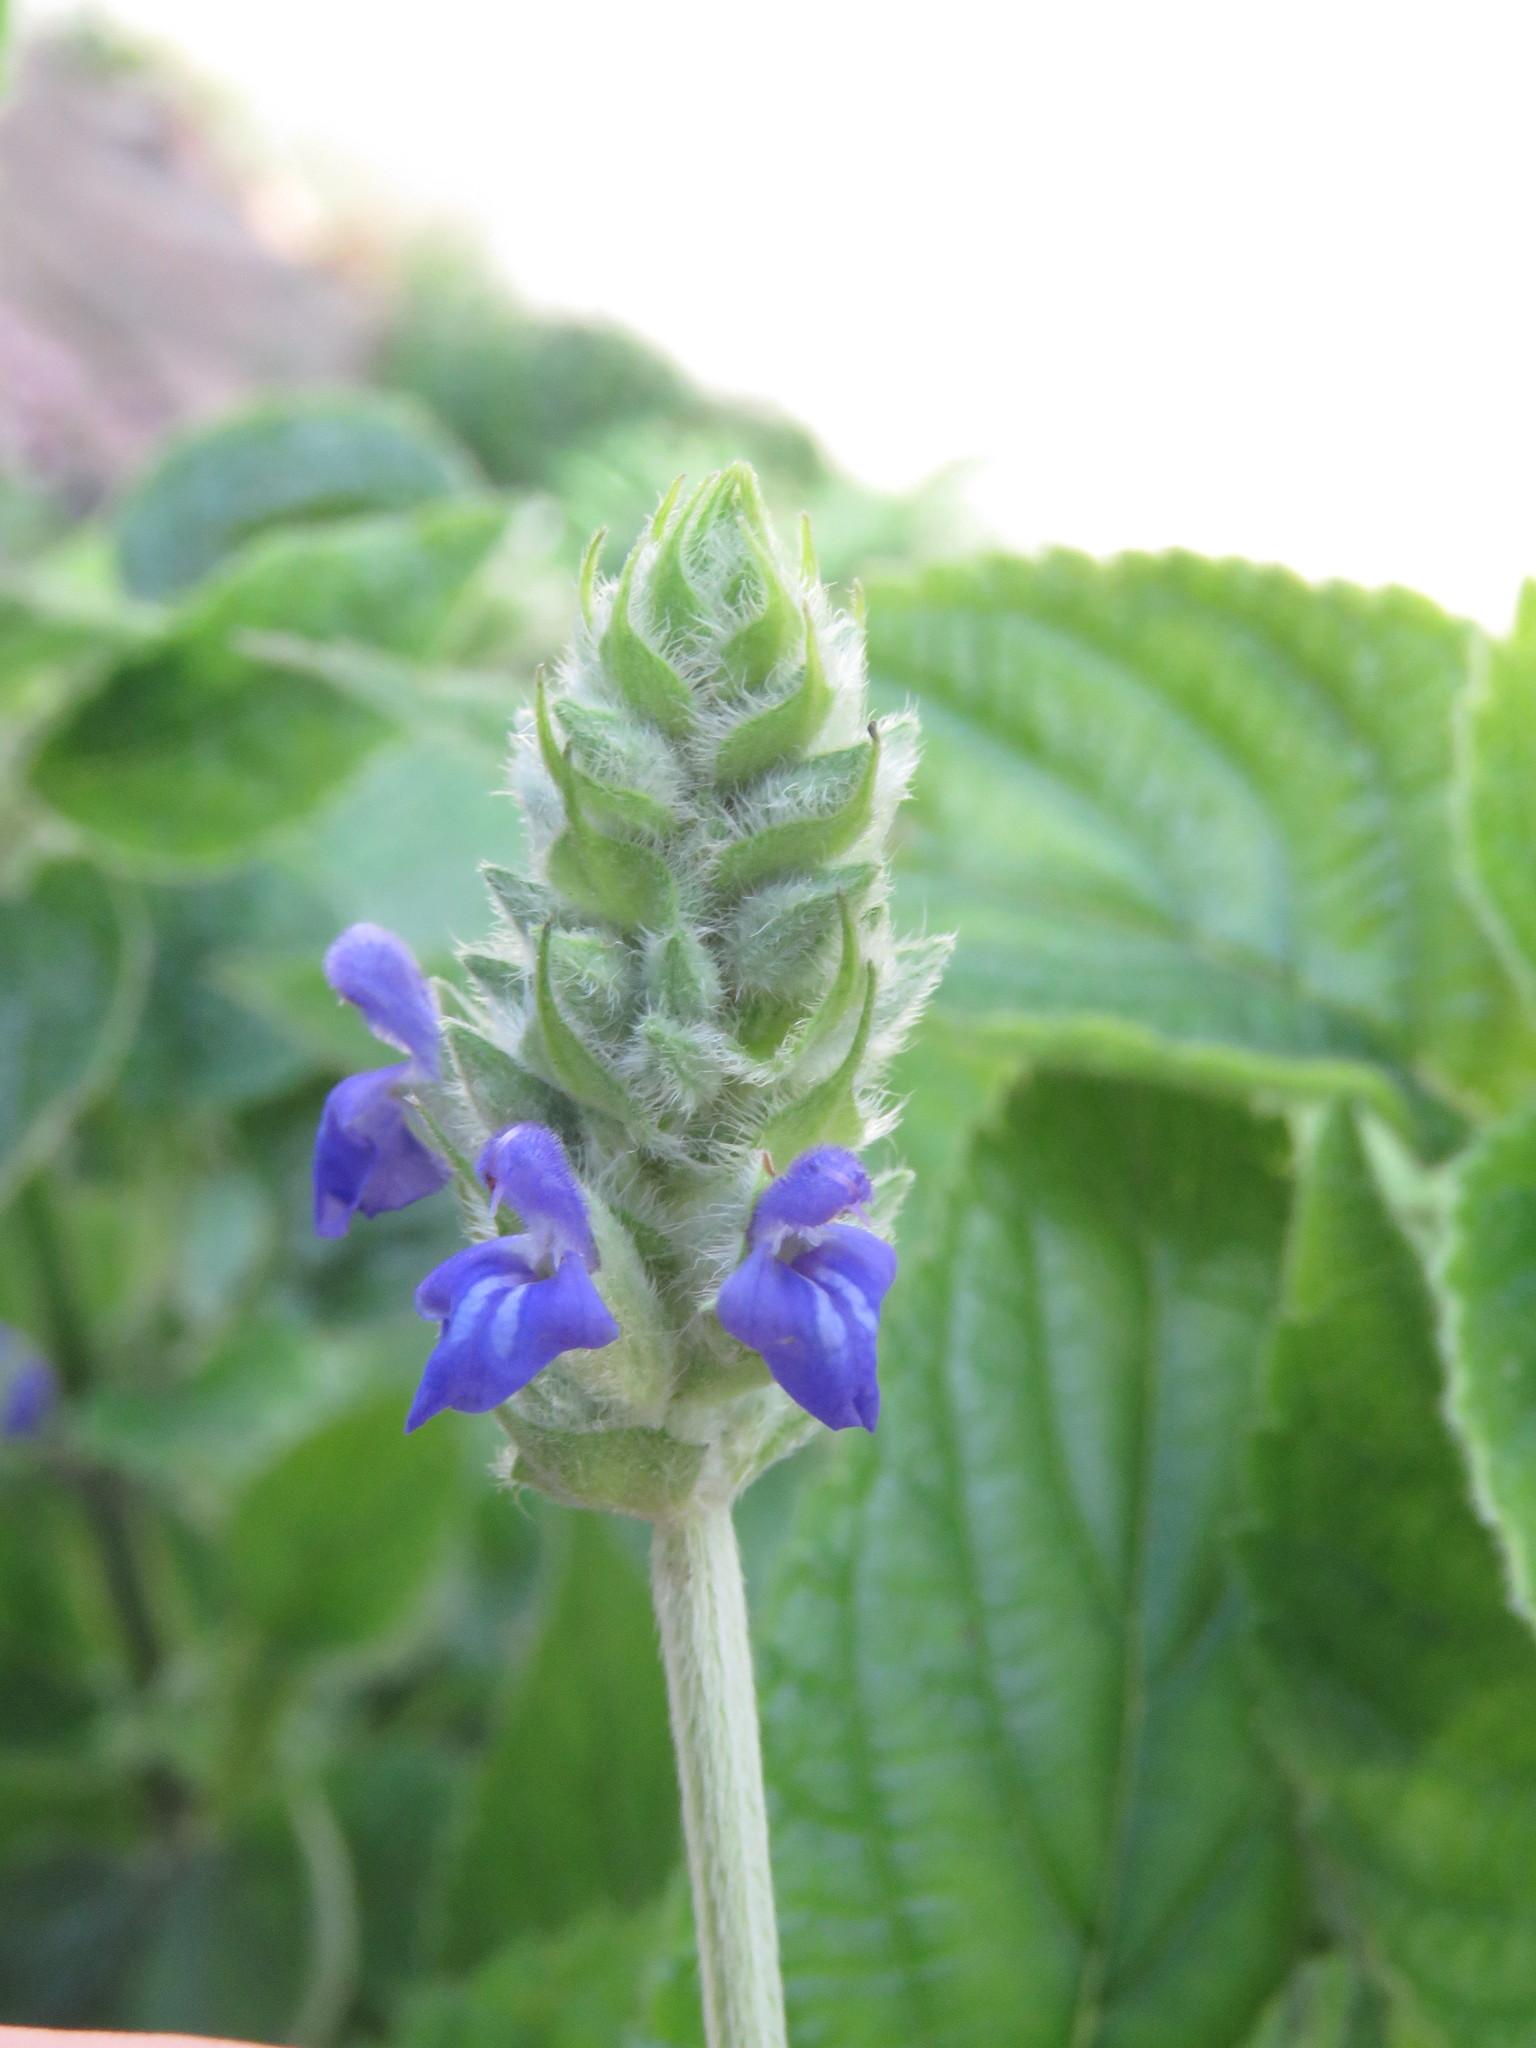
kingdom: Plantae
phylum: Tracheophyta
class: Magnoliopsida
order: Lamiales
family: Lamiaceae
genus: Salvia
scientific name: Salvia hispanica
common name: Chia
